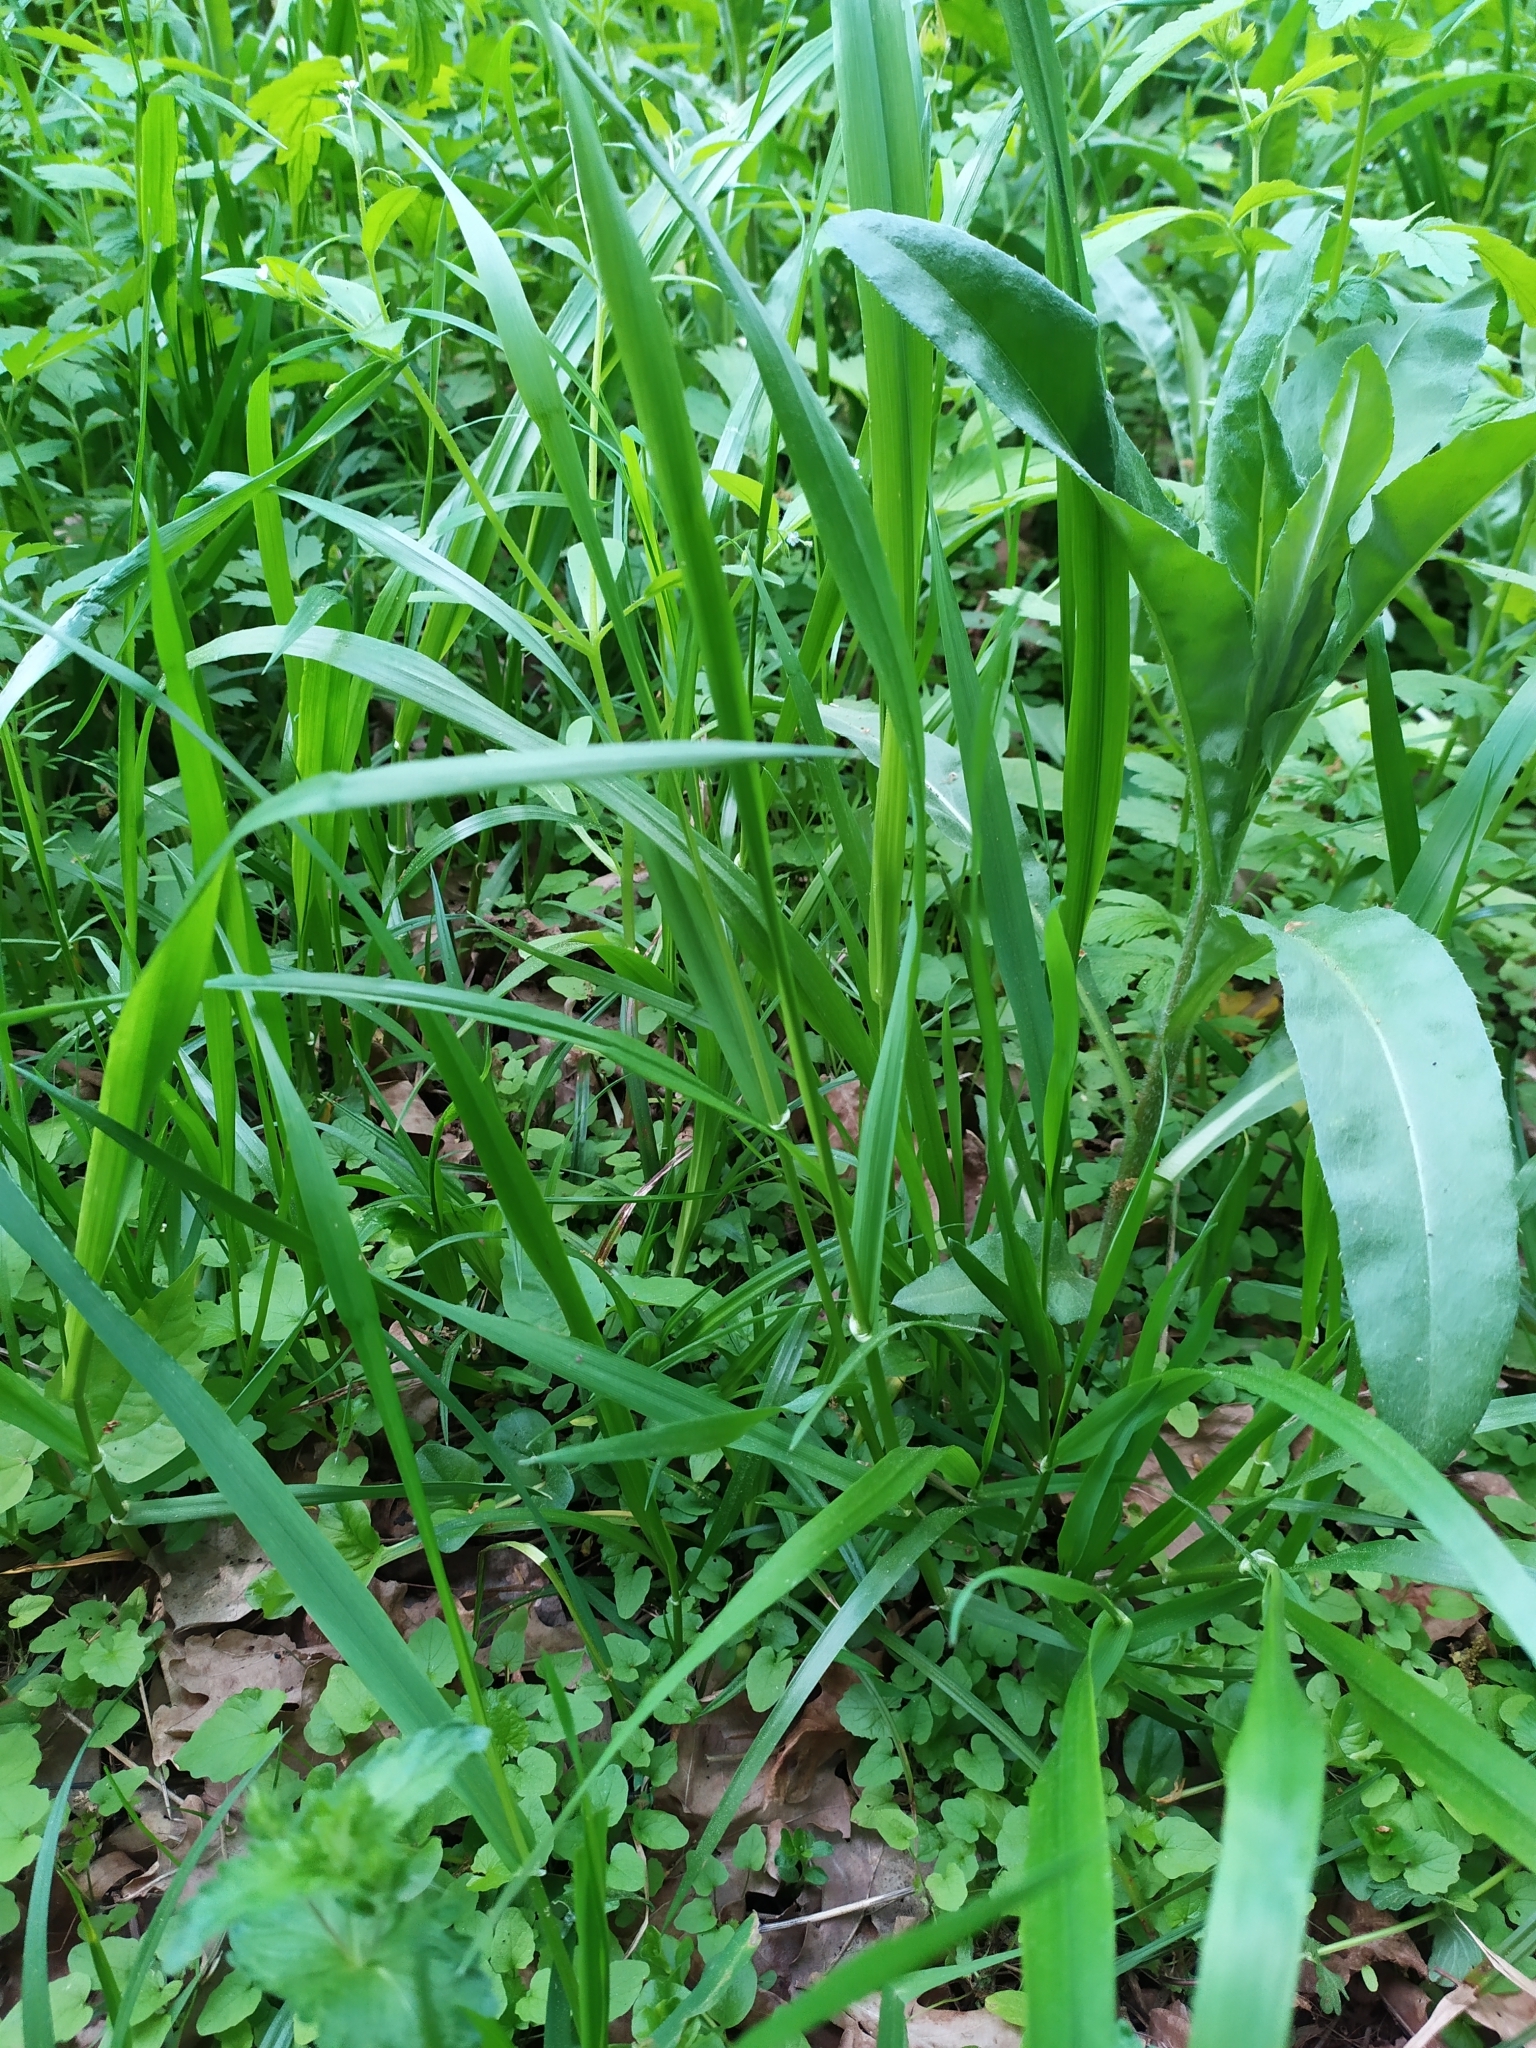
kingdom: Plantae
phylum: Tracheophyta
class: Liliopsida
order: Poales
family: Poaceae
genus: Lolium
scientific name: Lolium giganteum
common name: Giant fescue
